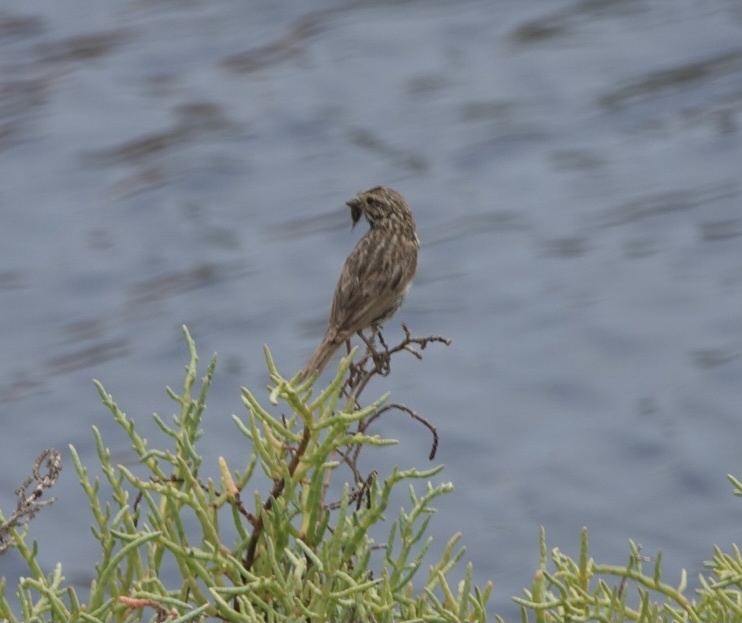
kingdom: Animalia
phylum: Chordata
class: Aves
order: Passeriformes
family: Passerellidae
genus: Passerculus
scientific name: Passerculus sandwichensis
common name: Savannah sparrow
